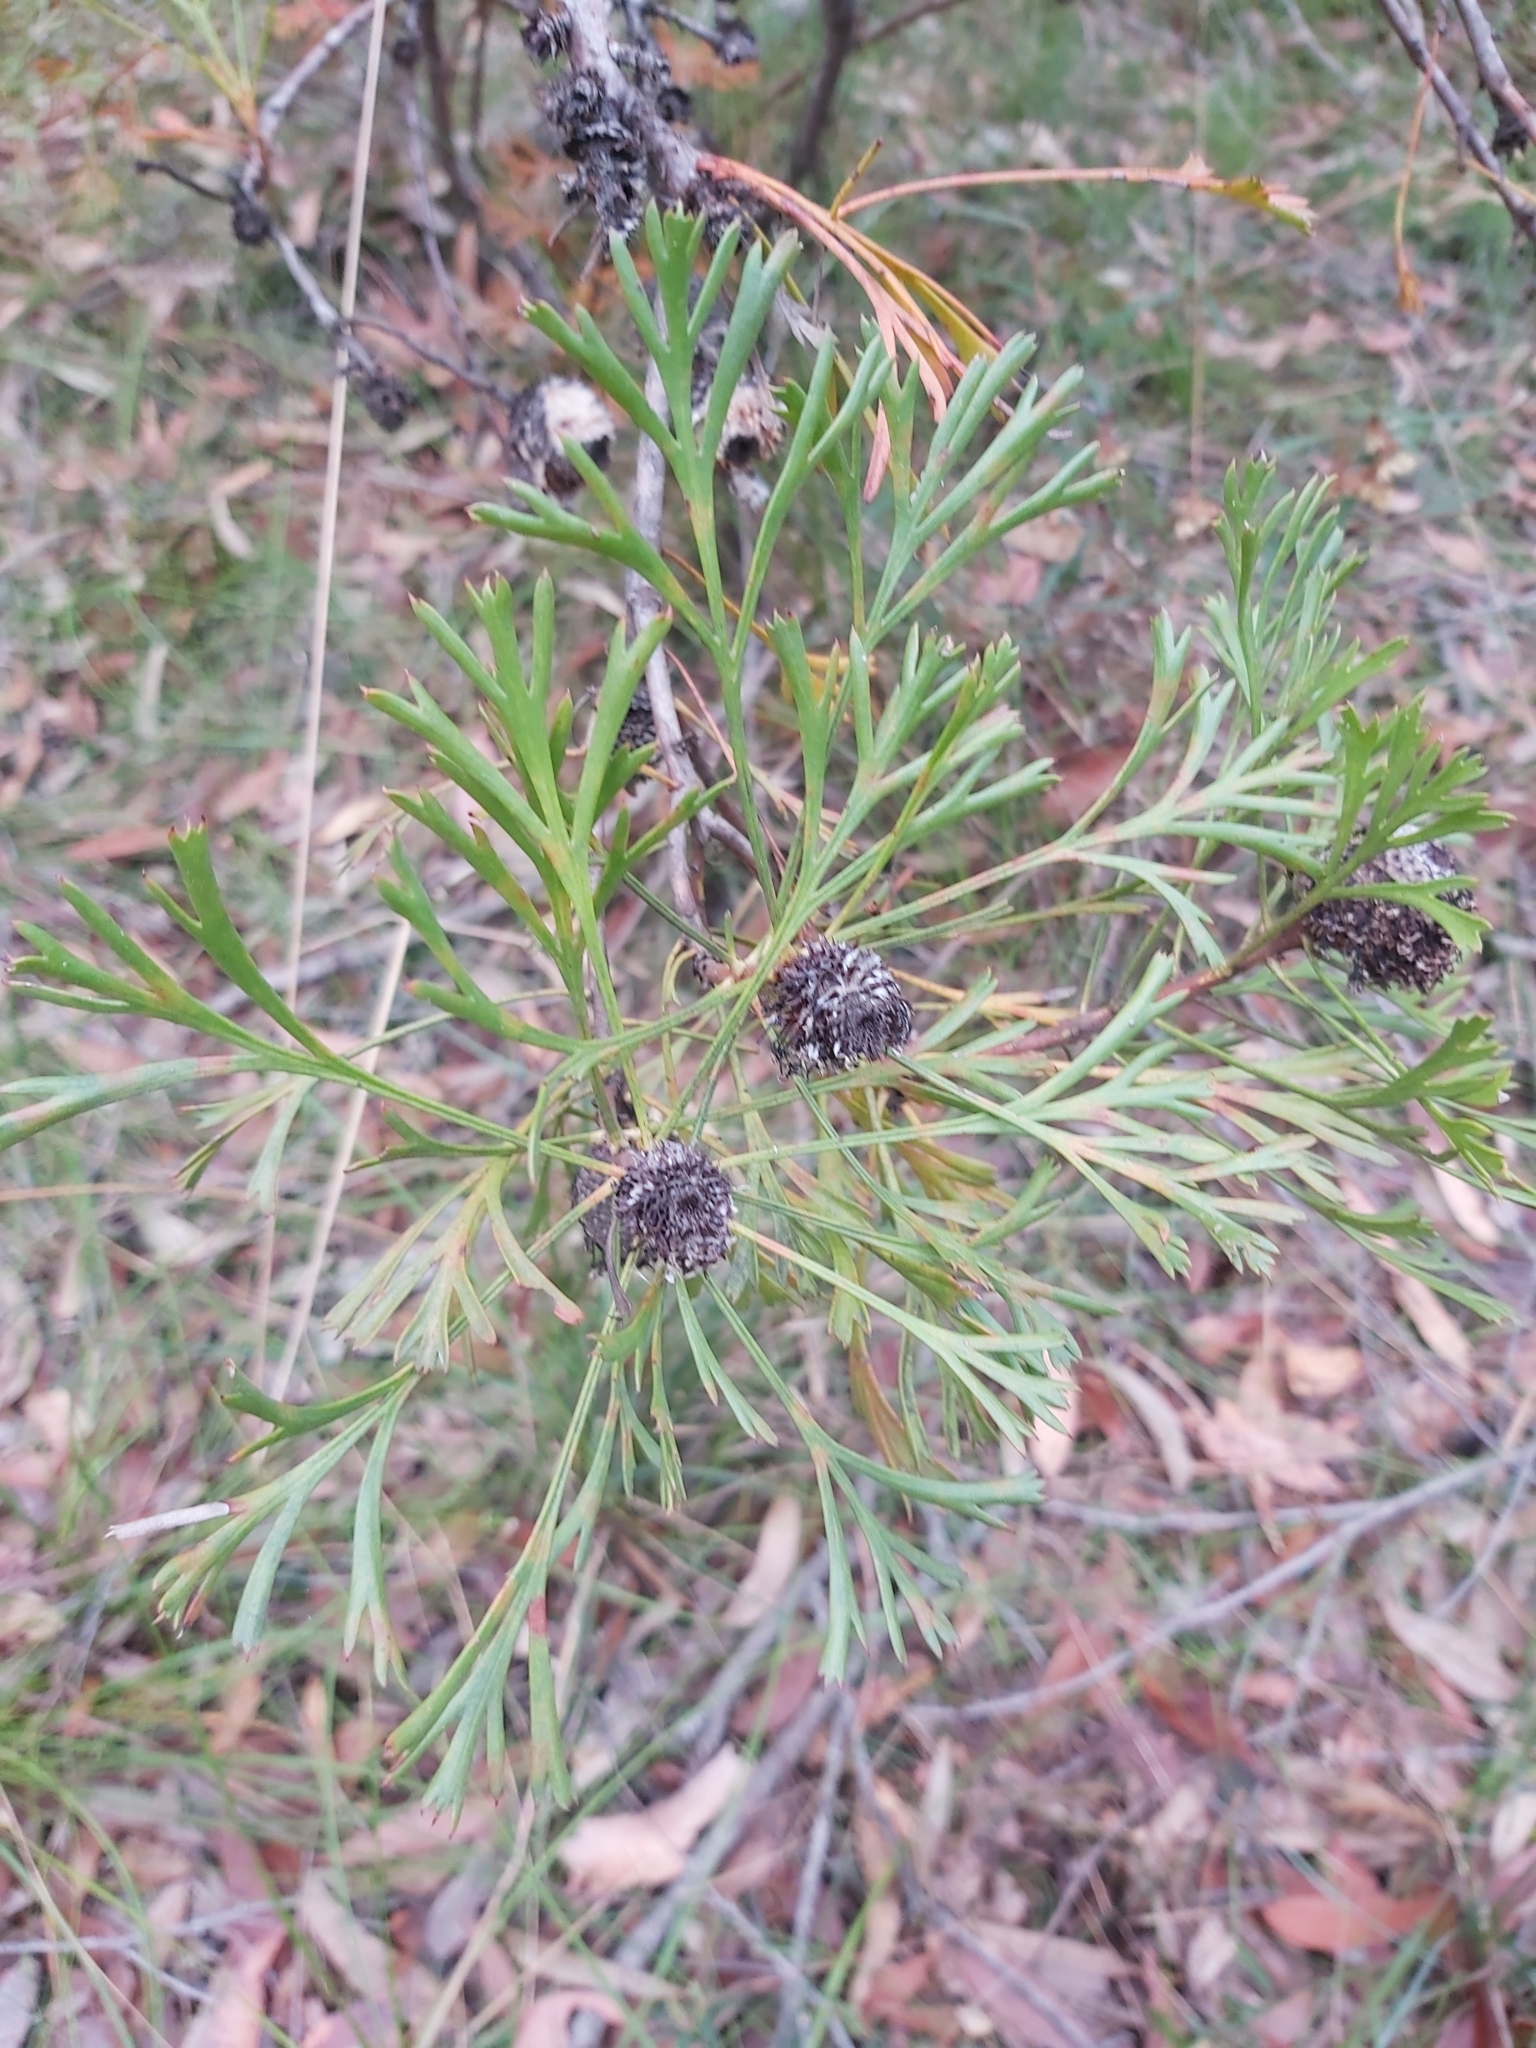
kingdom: Plantae
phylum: Tracheophyta
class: Magnoliopsida
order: Proteales
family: Proteaceae
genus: Isopogon
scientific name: Isopogon anemonifolius
